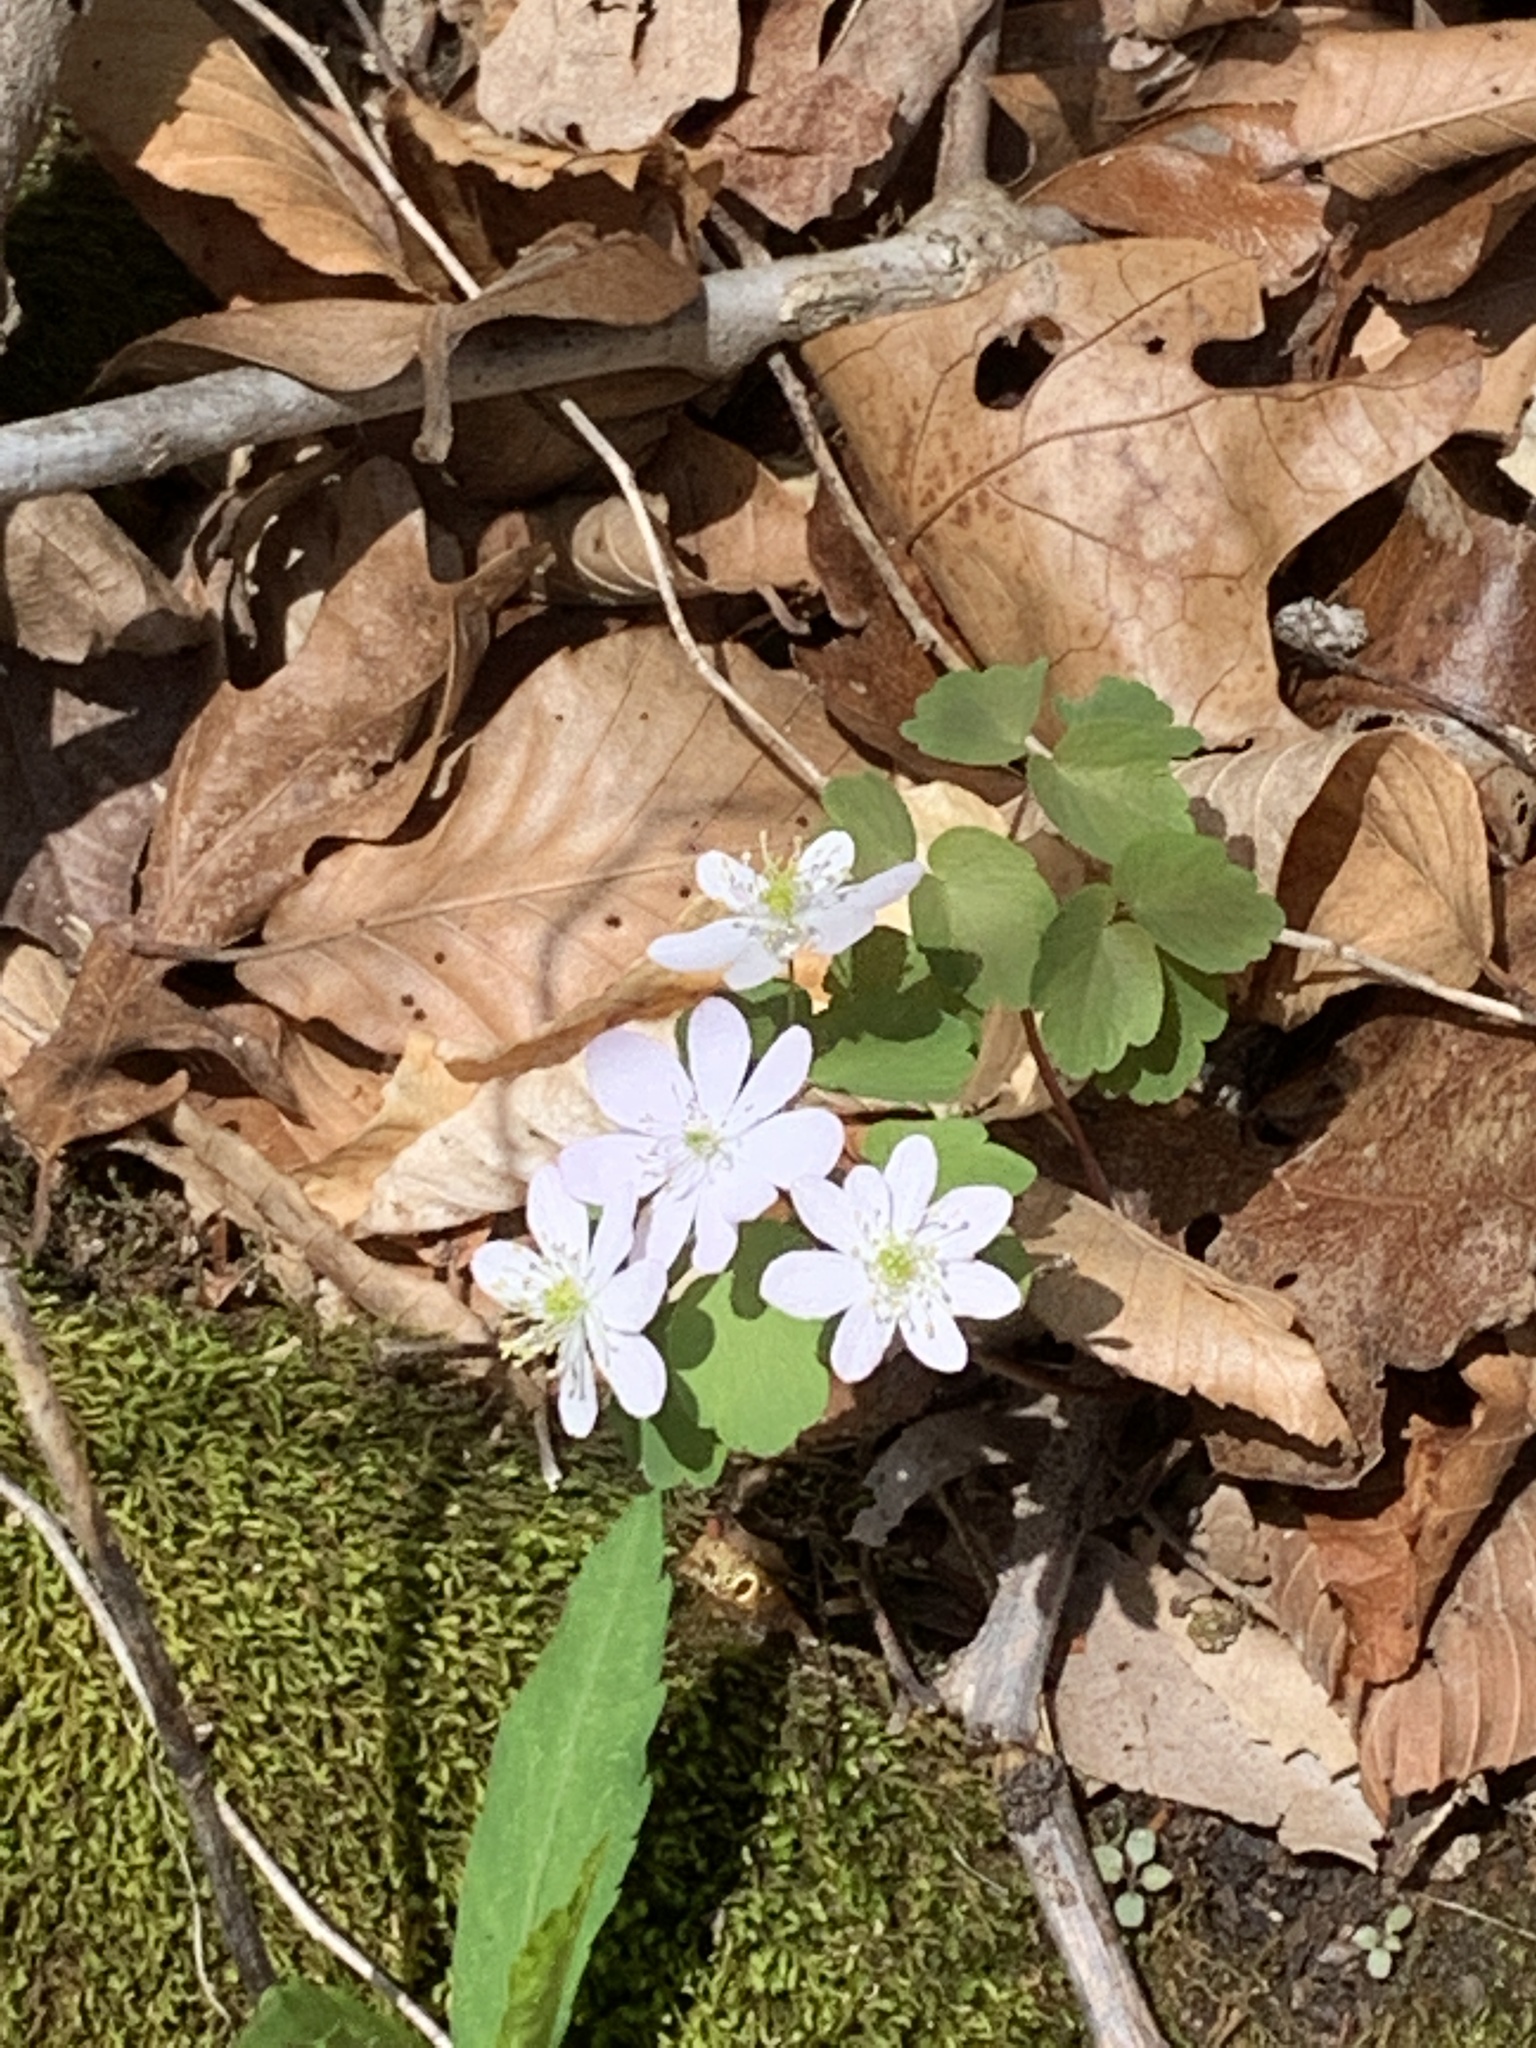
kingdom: Plantae
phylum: Tracheophyta
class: Magnoliopsida
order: Ranunculales
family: Ranunculaceae
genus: Thalictrum
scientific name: Thalictrum thalictroides
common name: Rue-anemone
